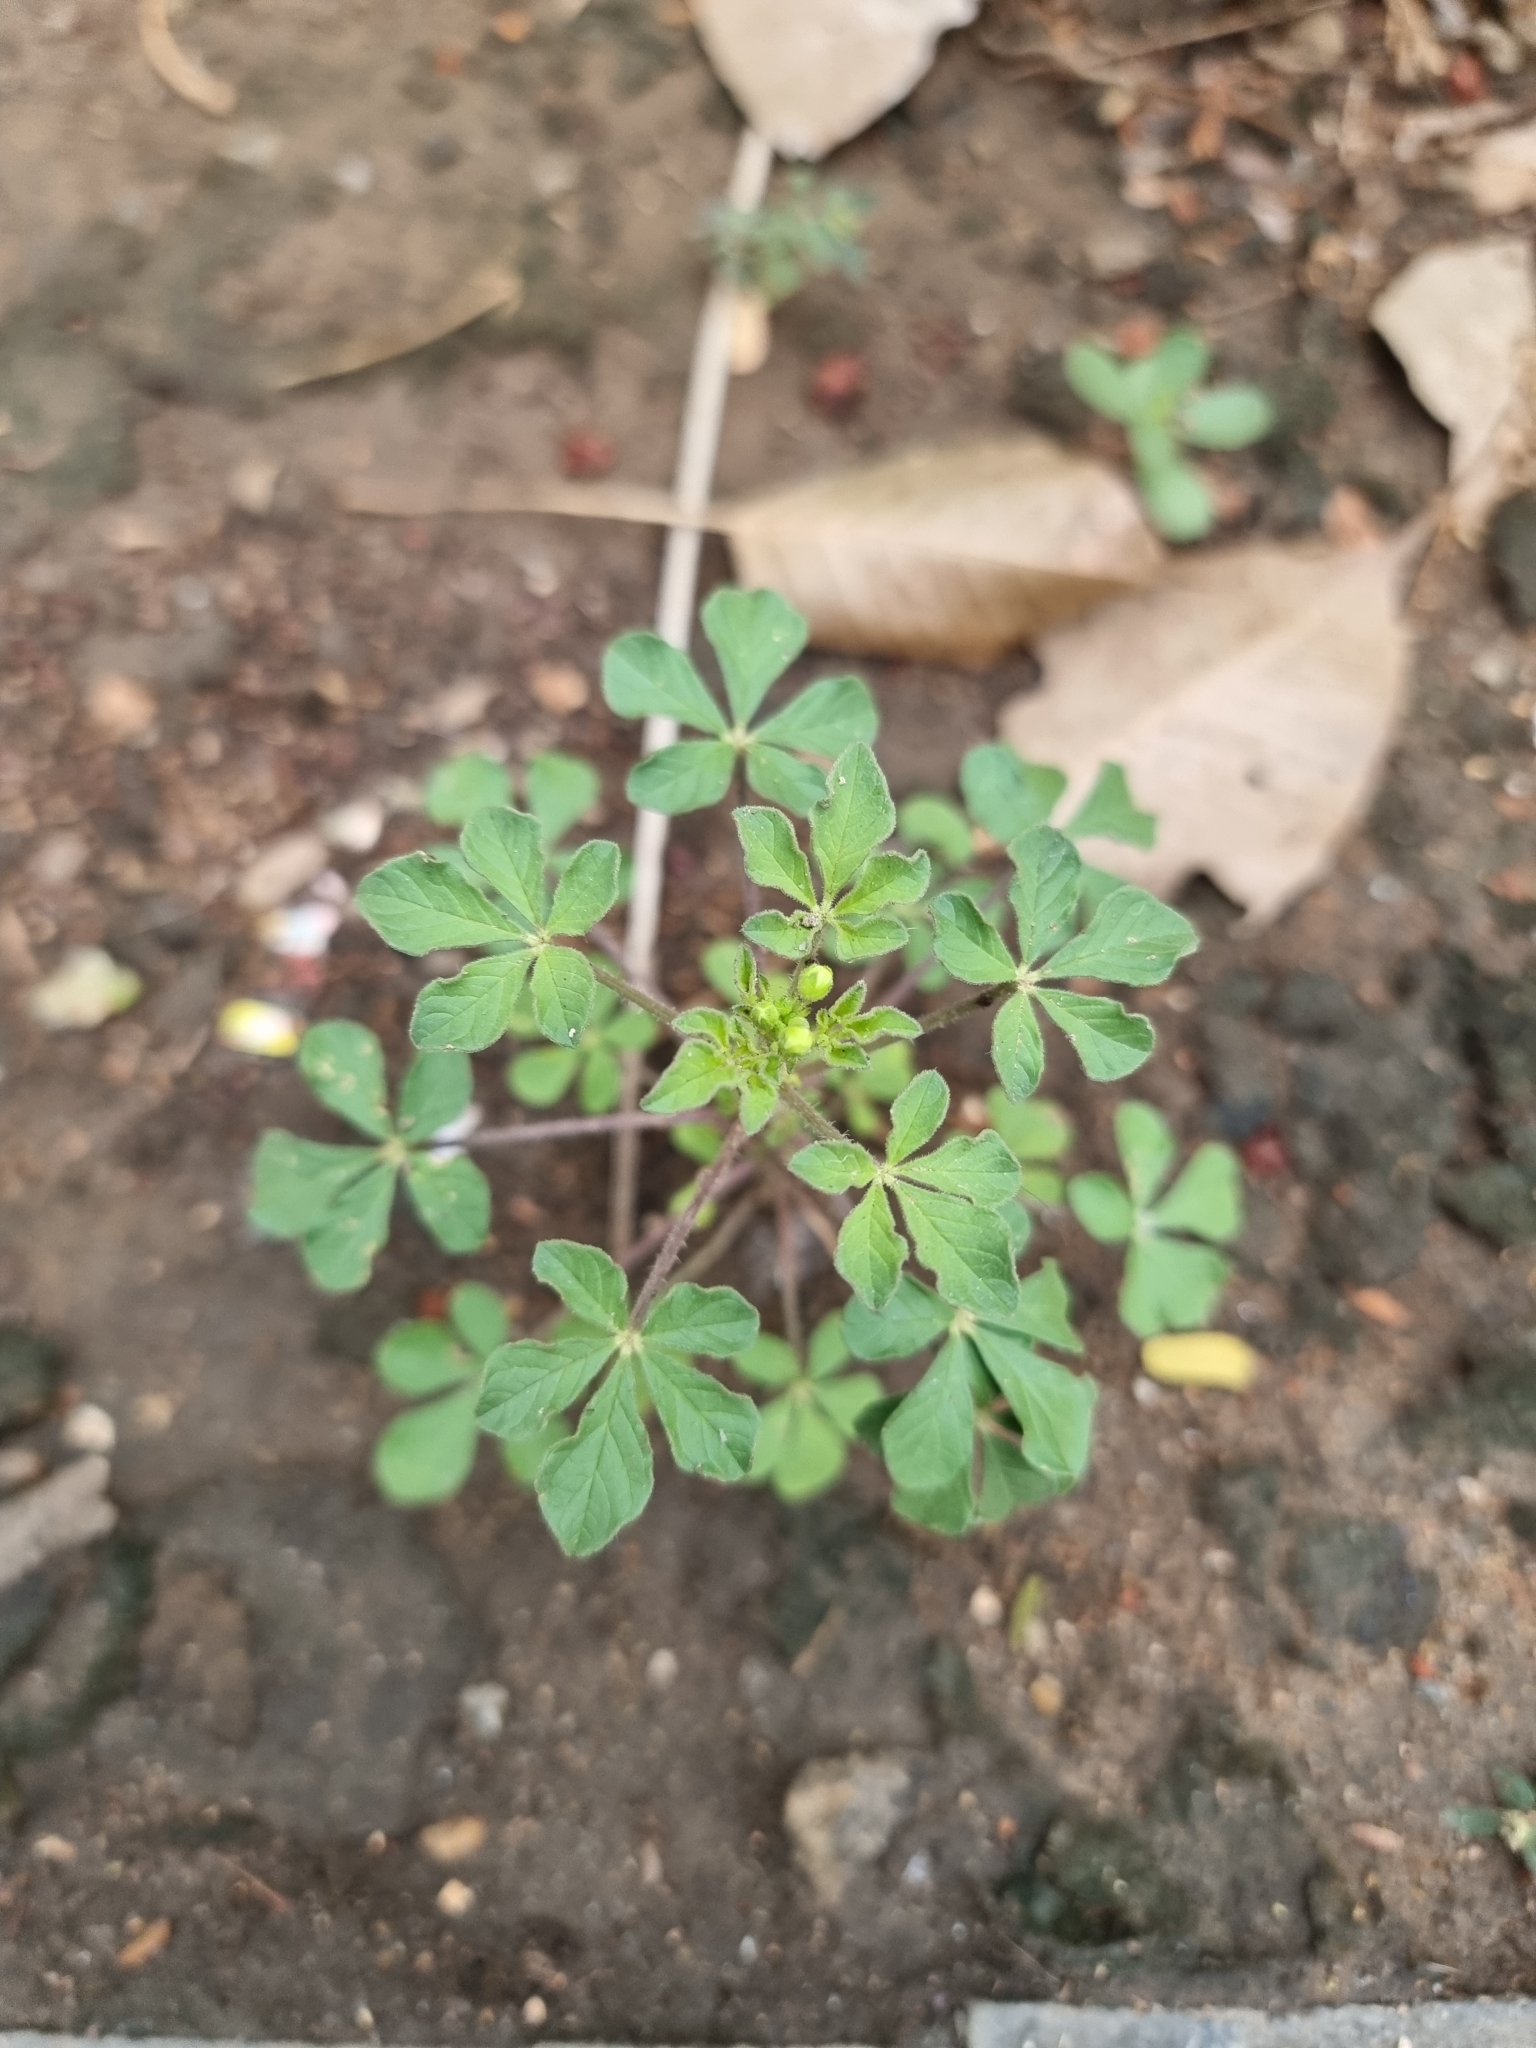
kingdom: Plantae
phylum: Tracheophyta
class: Magnoliopsida
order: Brassicales
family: Cleomaceae
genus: Arivela
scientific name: Arivela viscosa
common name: Asian spiderflower
